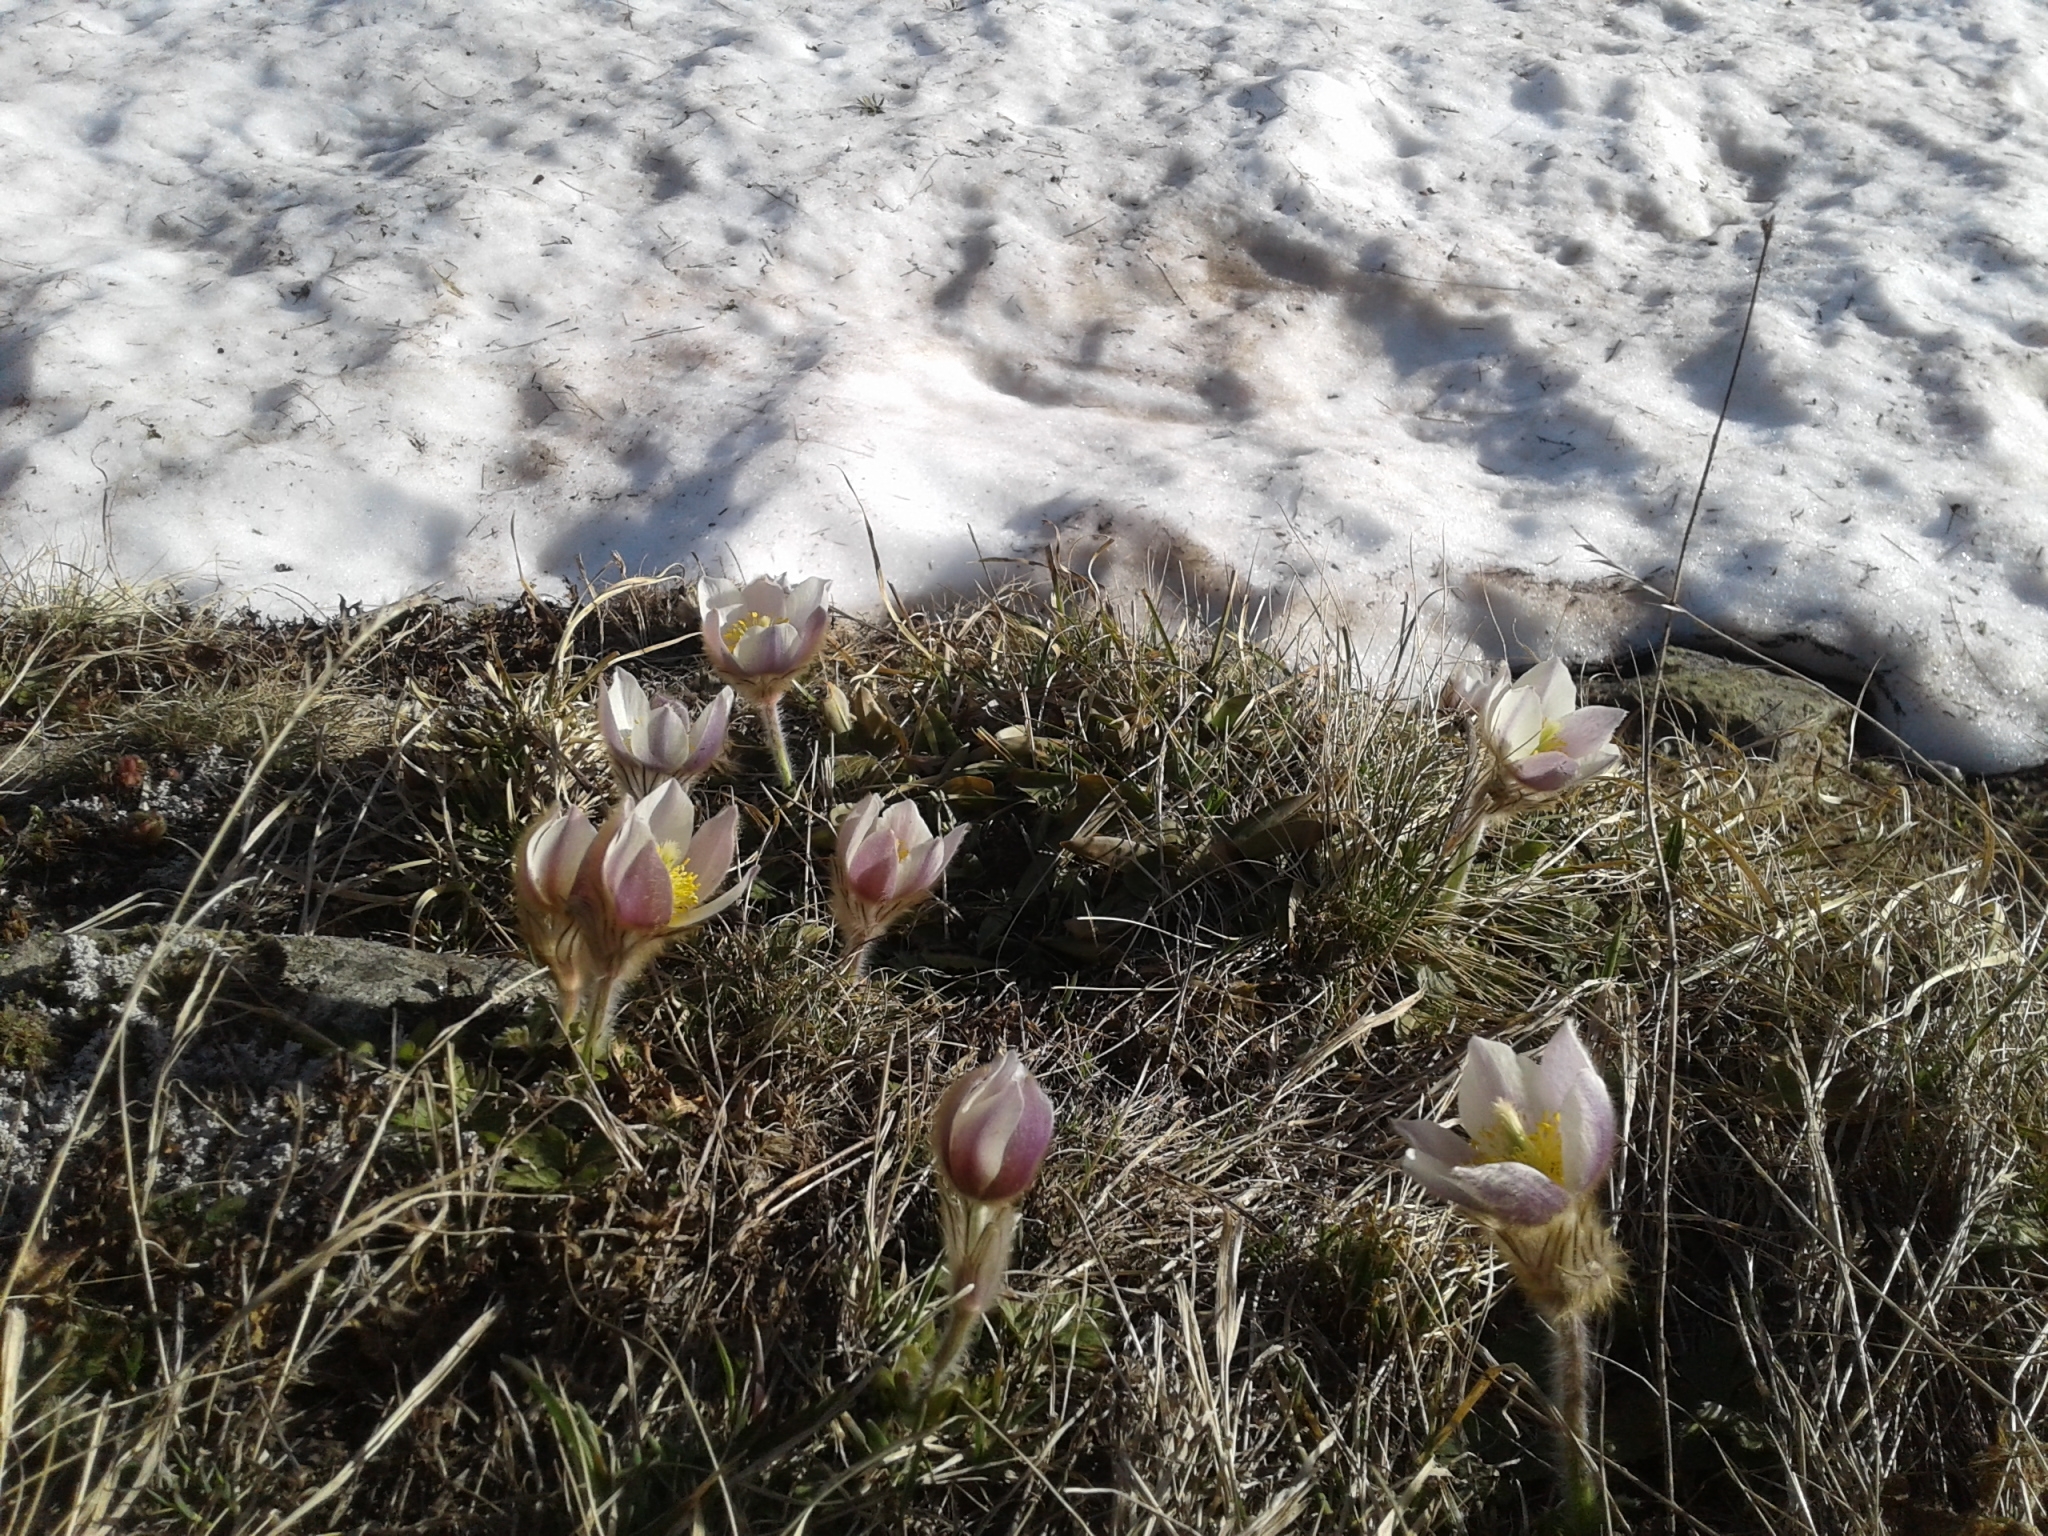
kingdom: Plantae
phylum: Tracheophyta
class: Magnoliopsida
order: Ranunculales
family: Ranunculaceae
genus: Pulsatilla
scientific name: Pulsatilla vernalis
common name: Spring pasque flower
